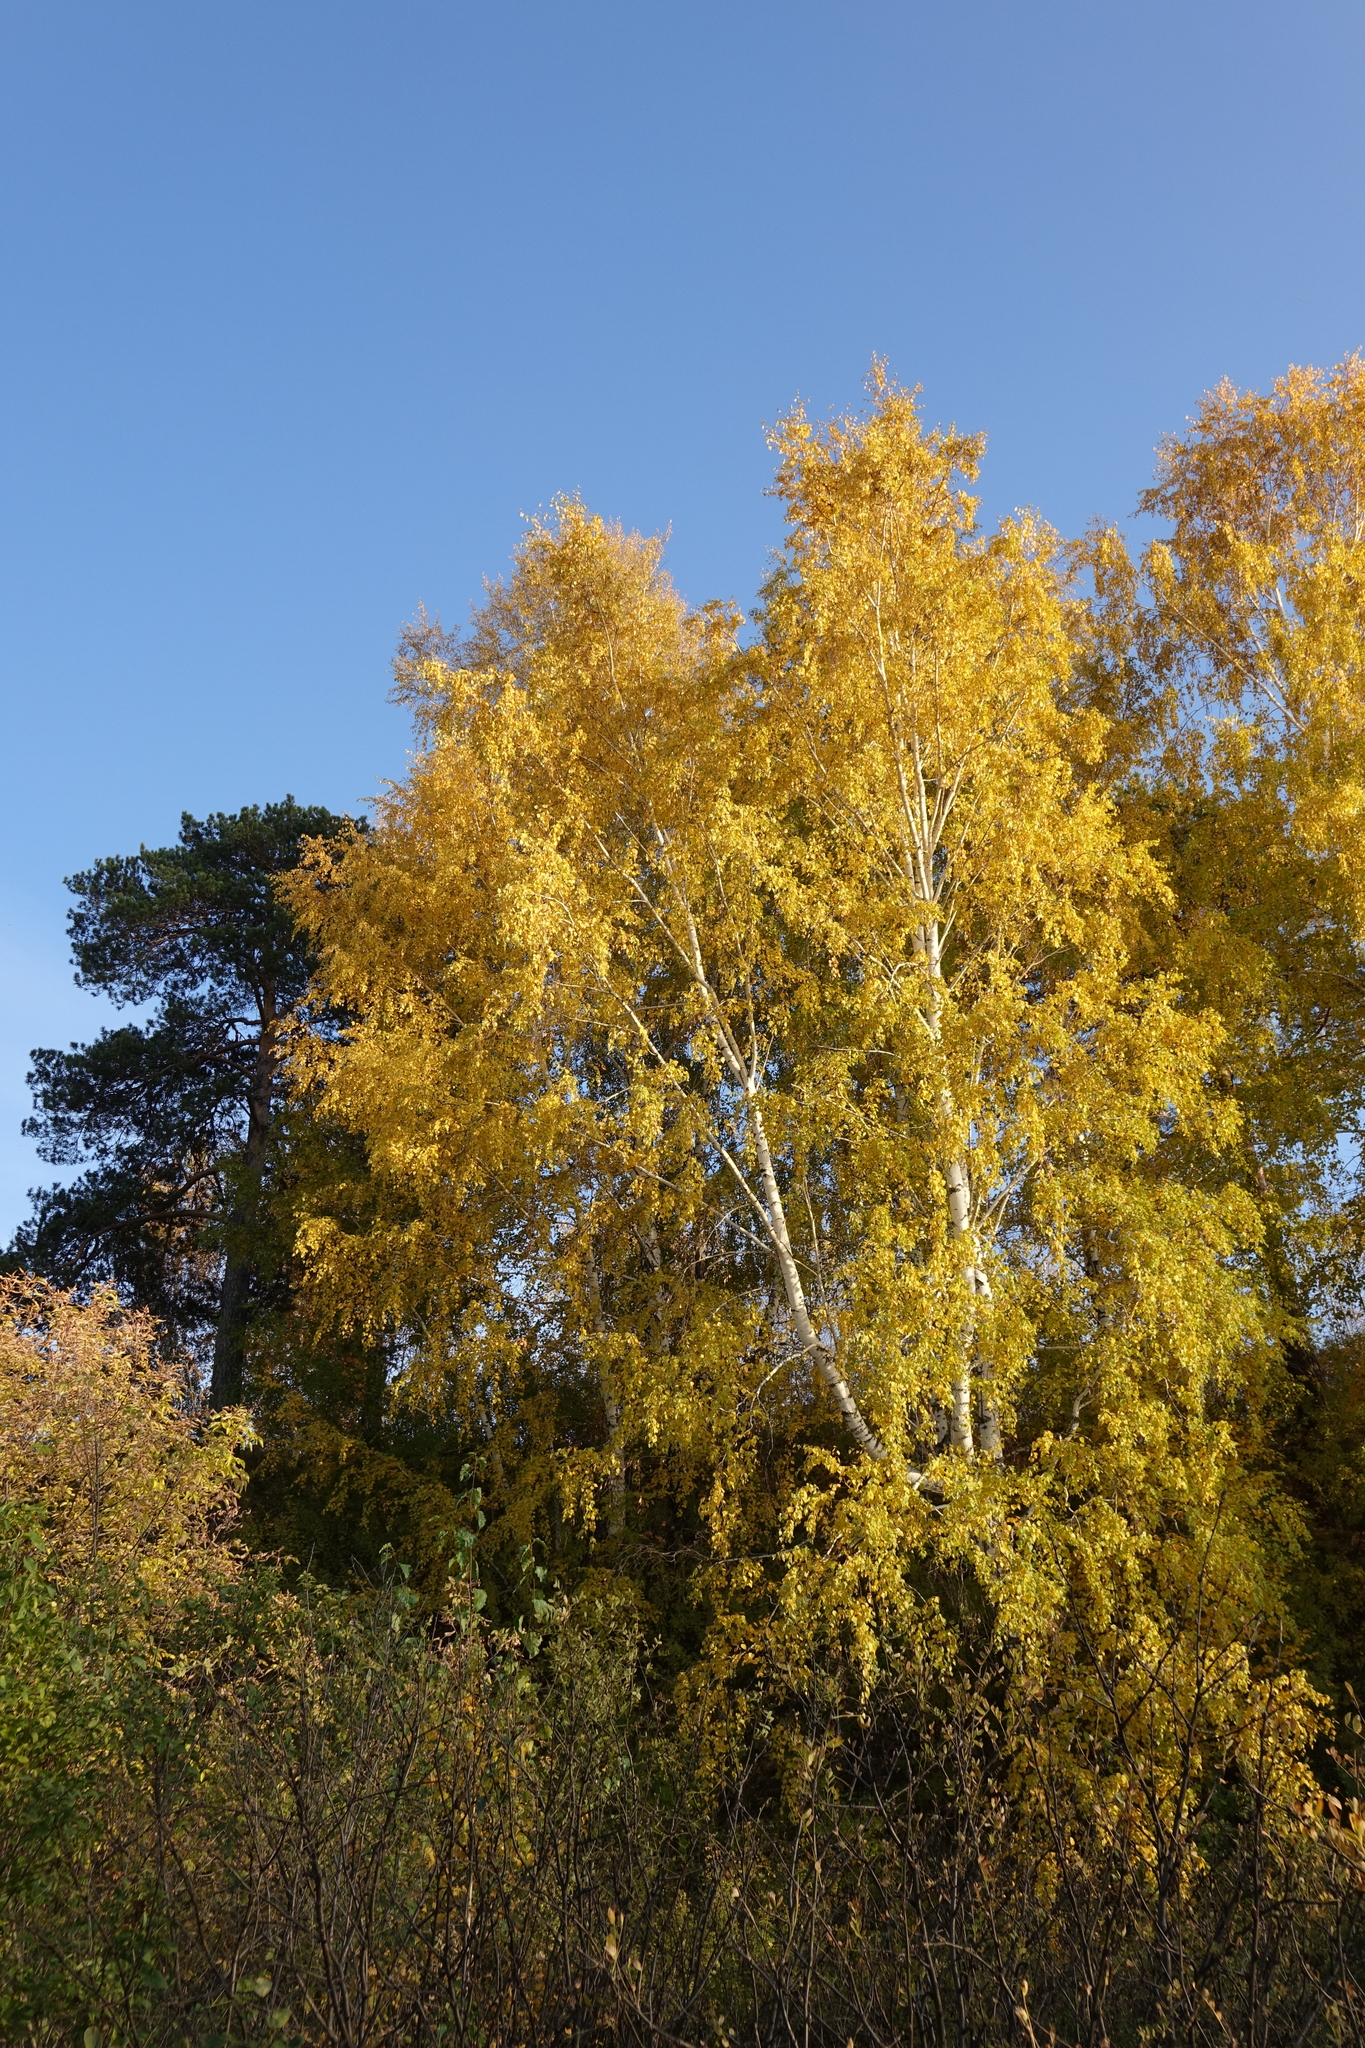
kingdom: Plantae
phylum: Tracheophyta
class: Magnoliopsida
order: Fagales
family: Betulaceae
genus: Betula
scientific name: Betula pendula
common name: Silver birch
